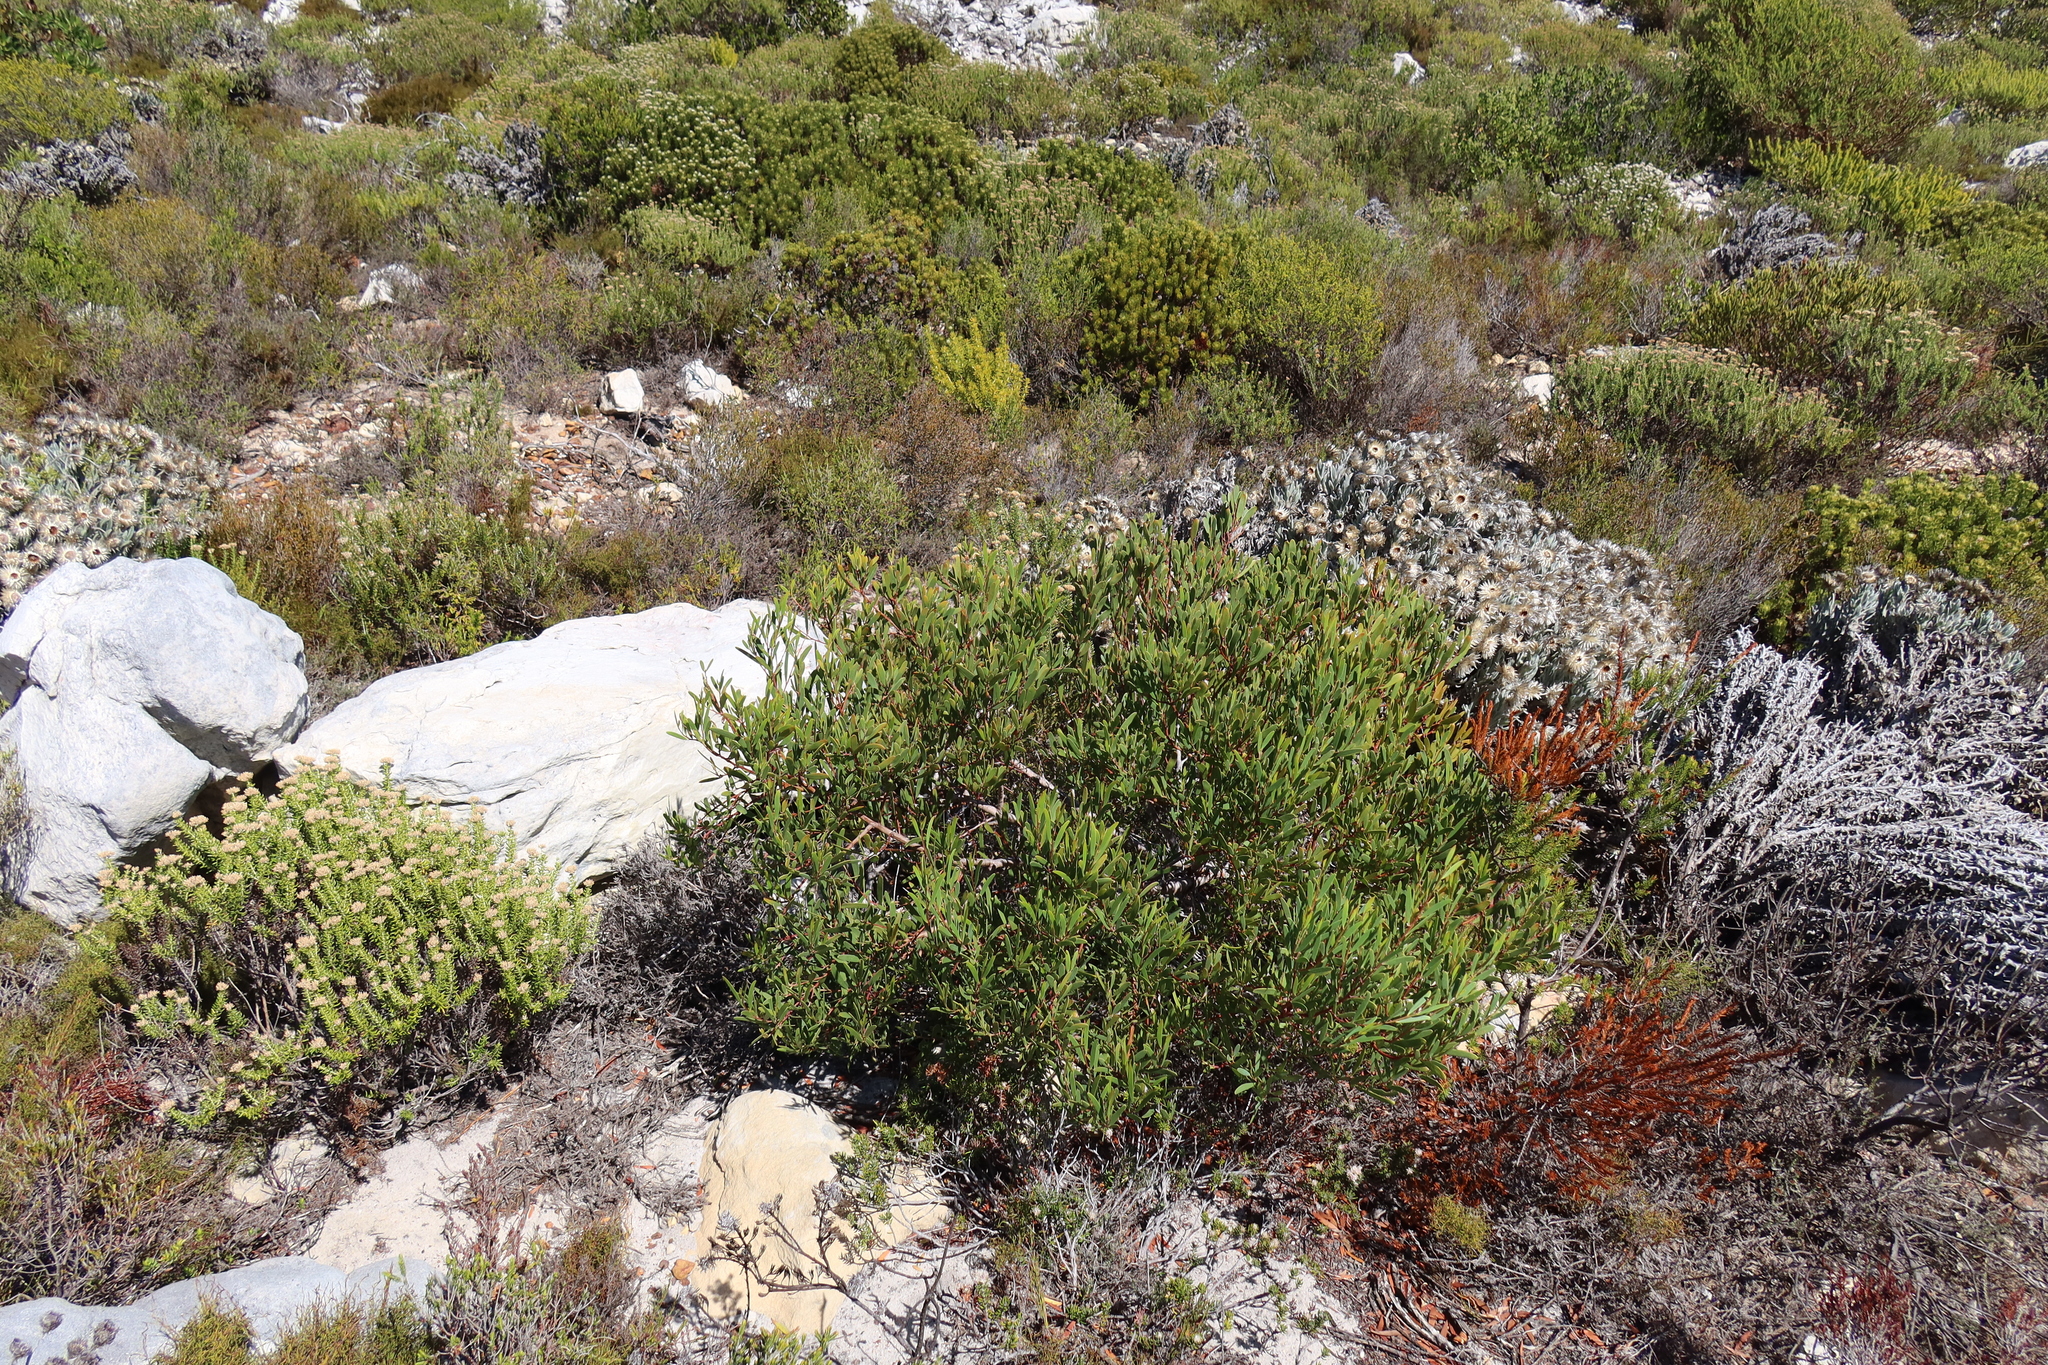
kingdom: Plantae
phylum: Tracheophyta
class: Magnoliopsida
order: Fabales
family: Fabaceae
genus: Acacia
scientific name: Acacia cyclops
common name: Coastal wattle
